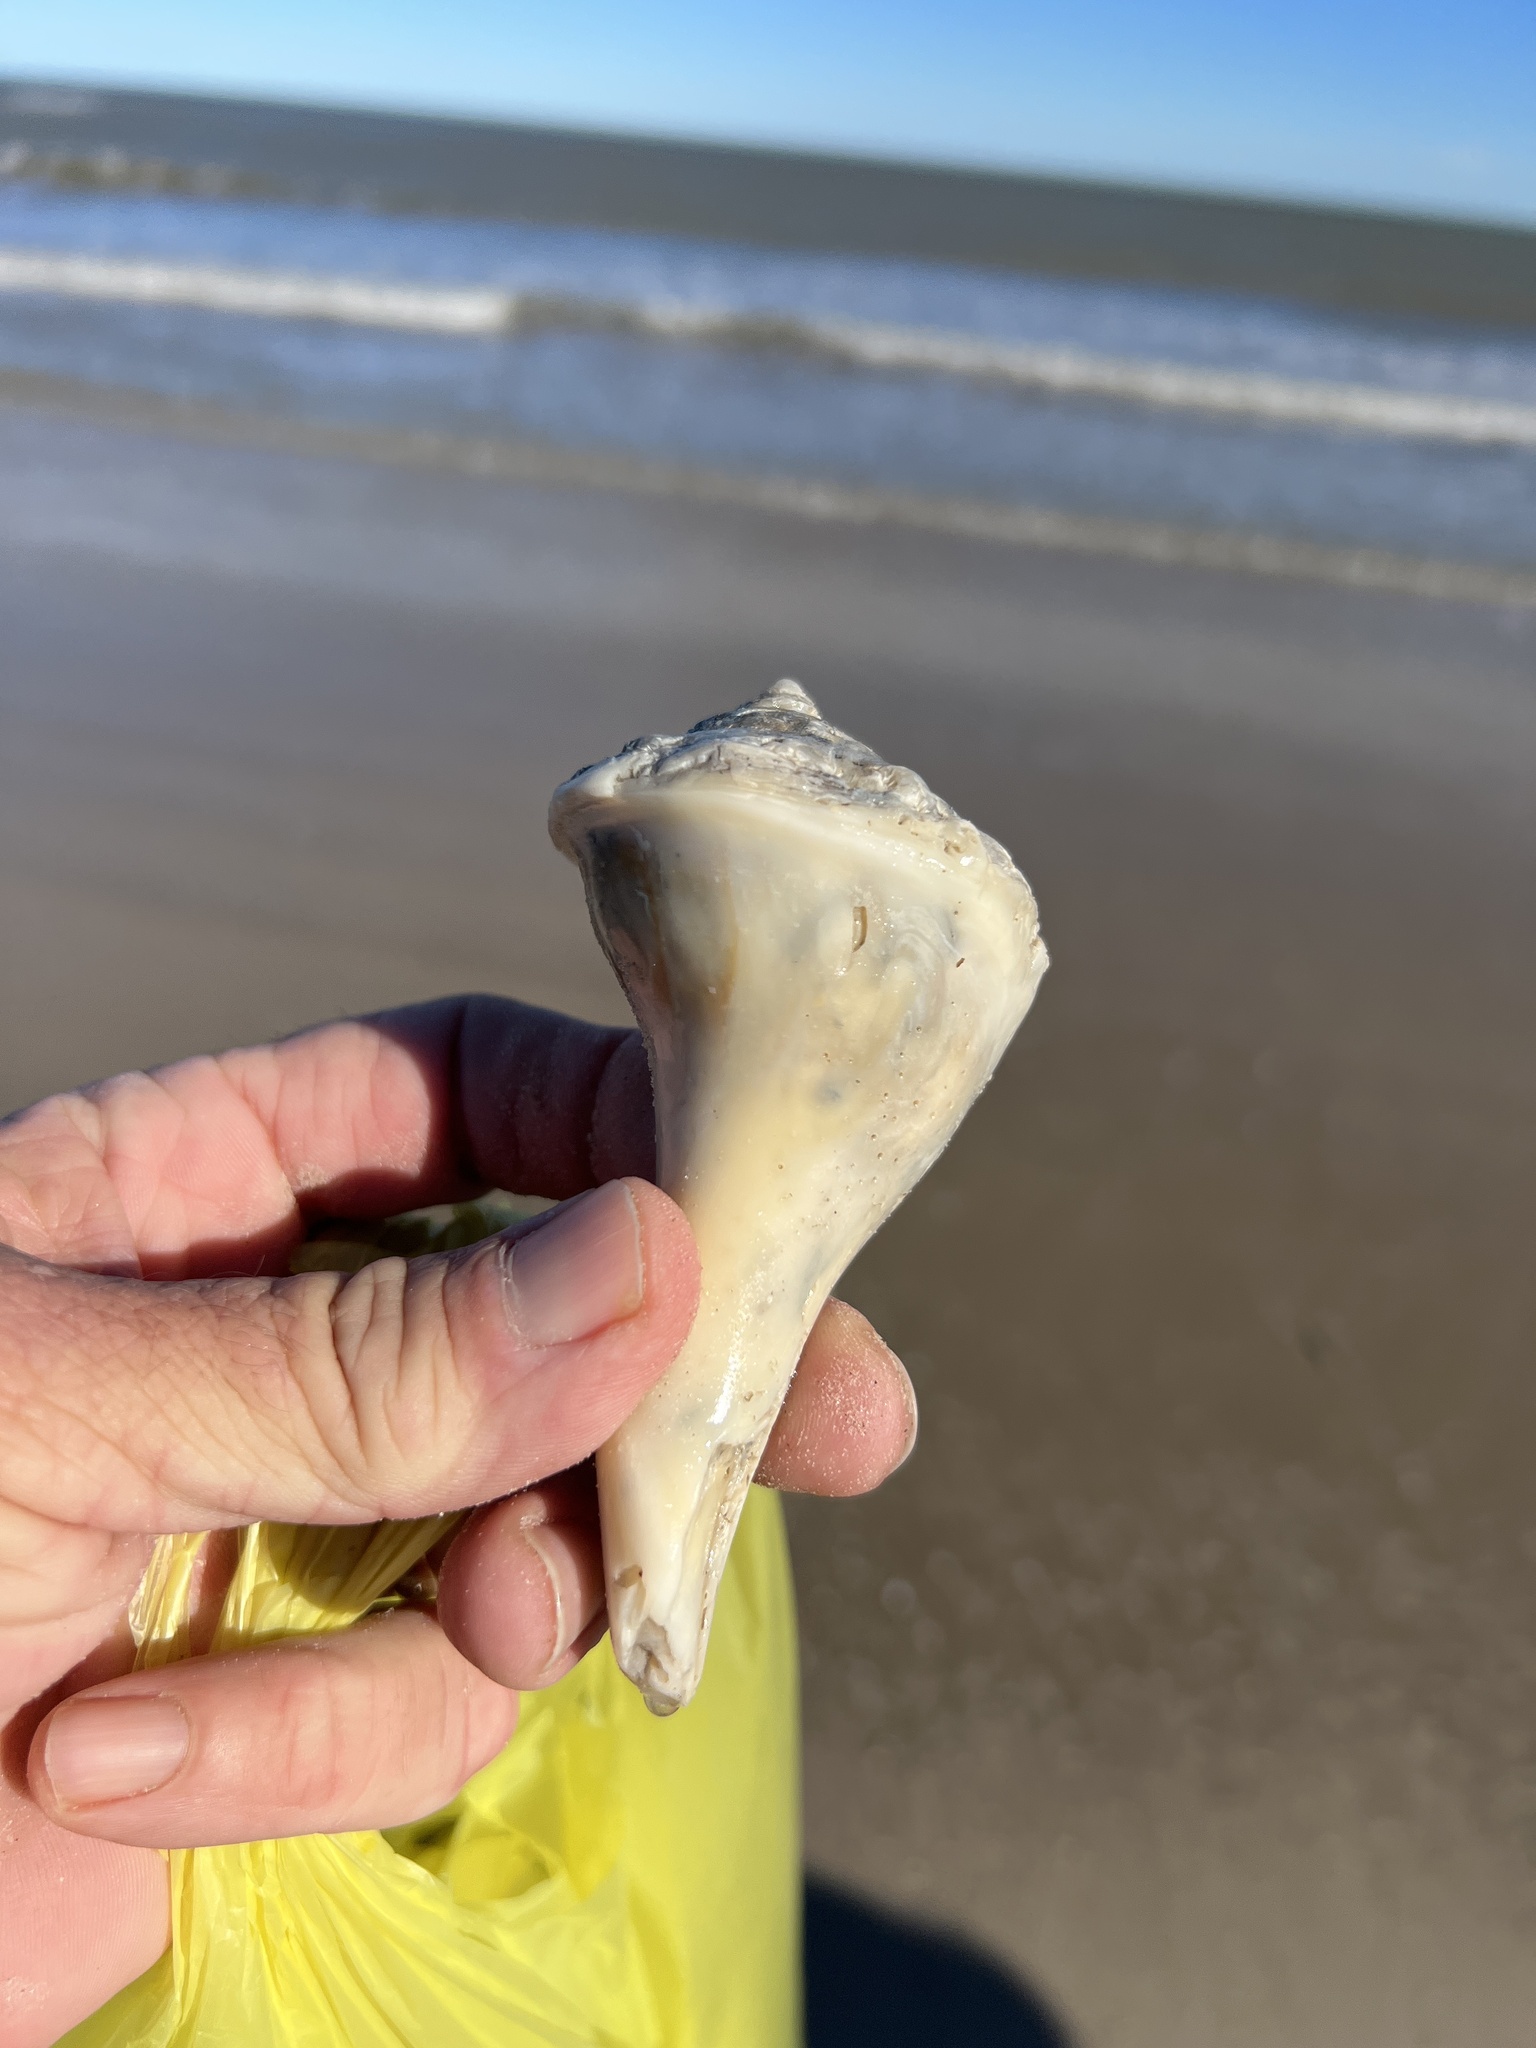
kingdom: Animalia
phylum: Mollusca
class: Gastropoda
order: Neogastropoda
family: Busyconidae
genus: Sinistrofulgur
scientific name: Sinistrofulgur pulleyi
